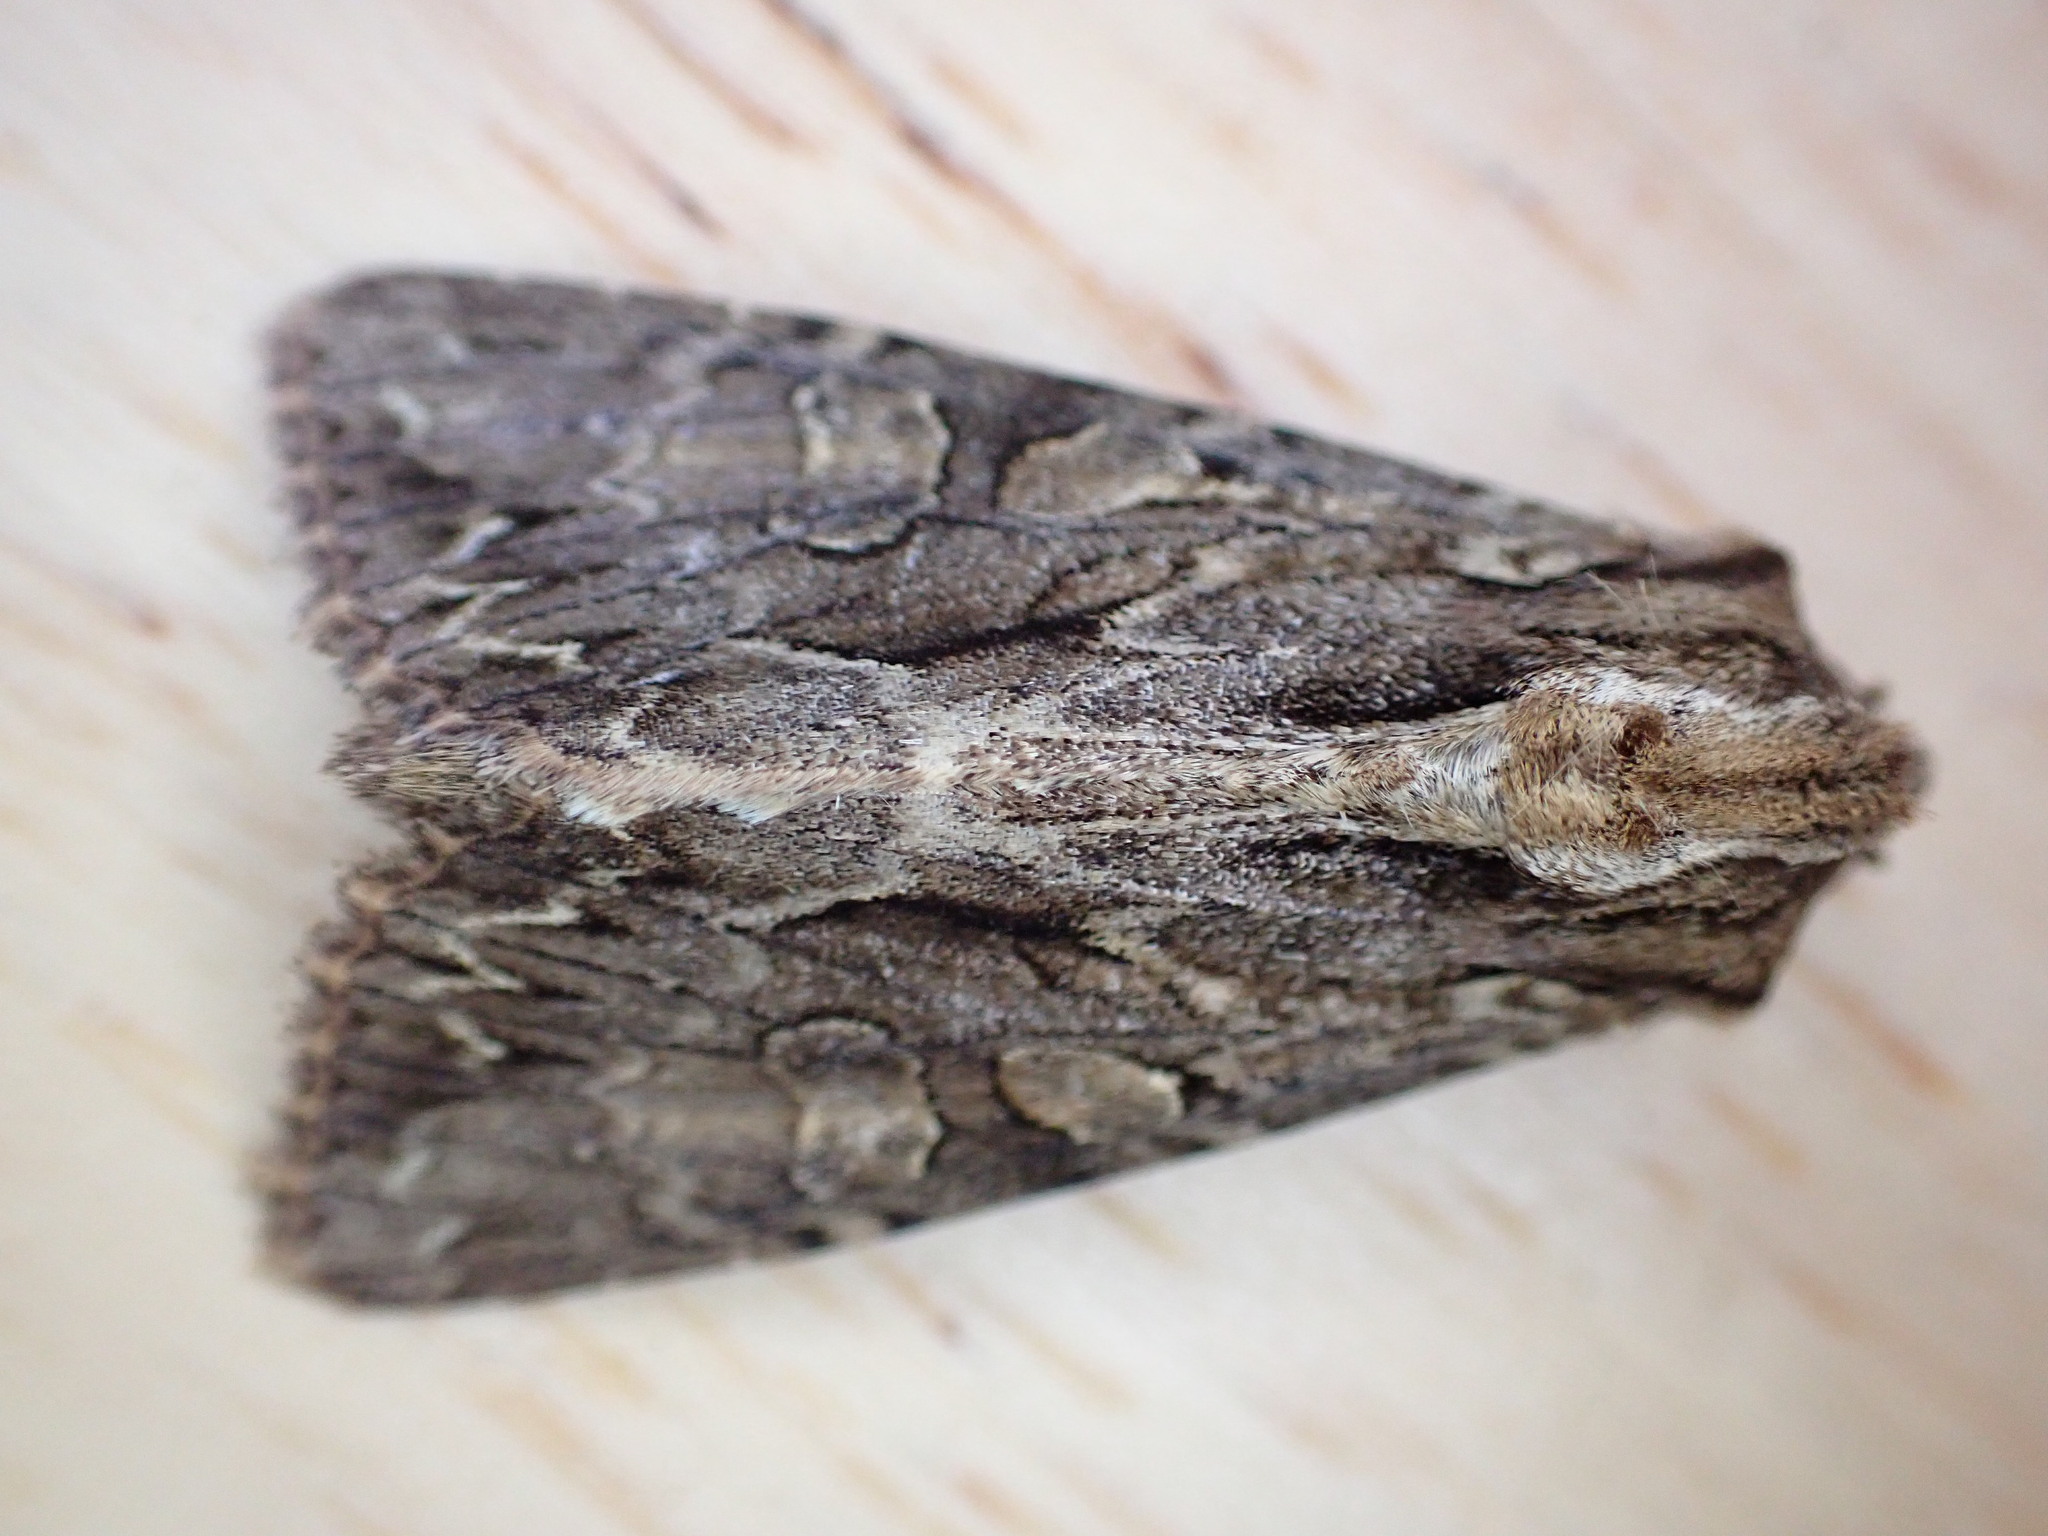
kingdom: Animalia
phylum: Arthropoda
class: Insecta
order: Lepidoptera
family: Noctuidae
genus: Apamea
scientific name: Apamea monoglypha
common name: Dark arches
